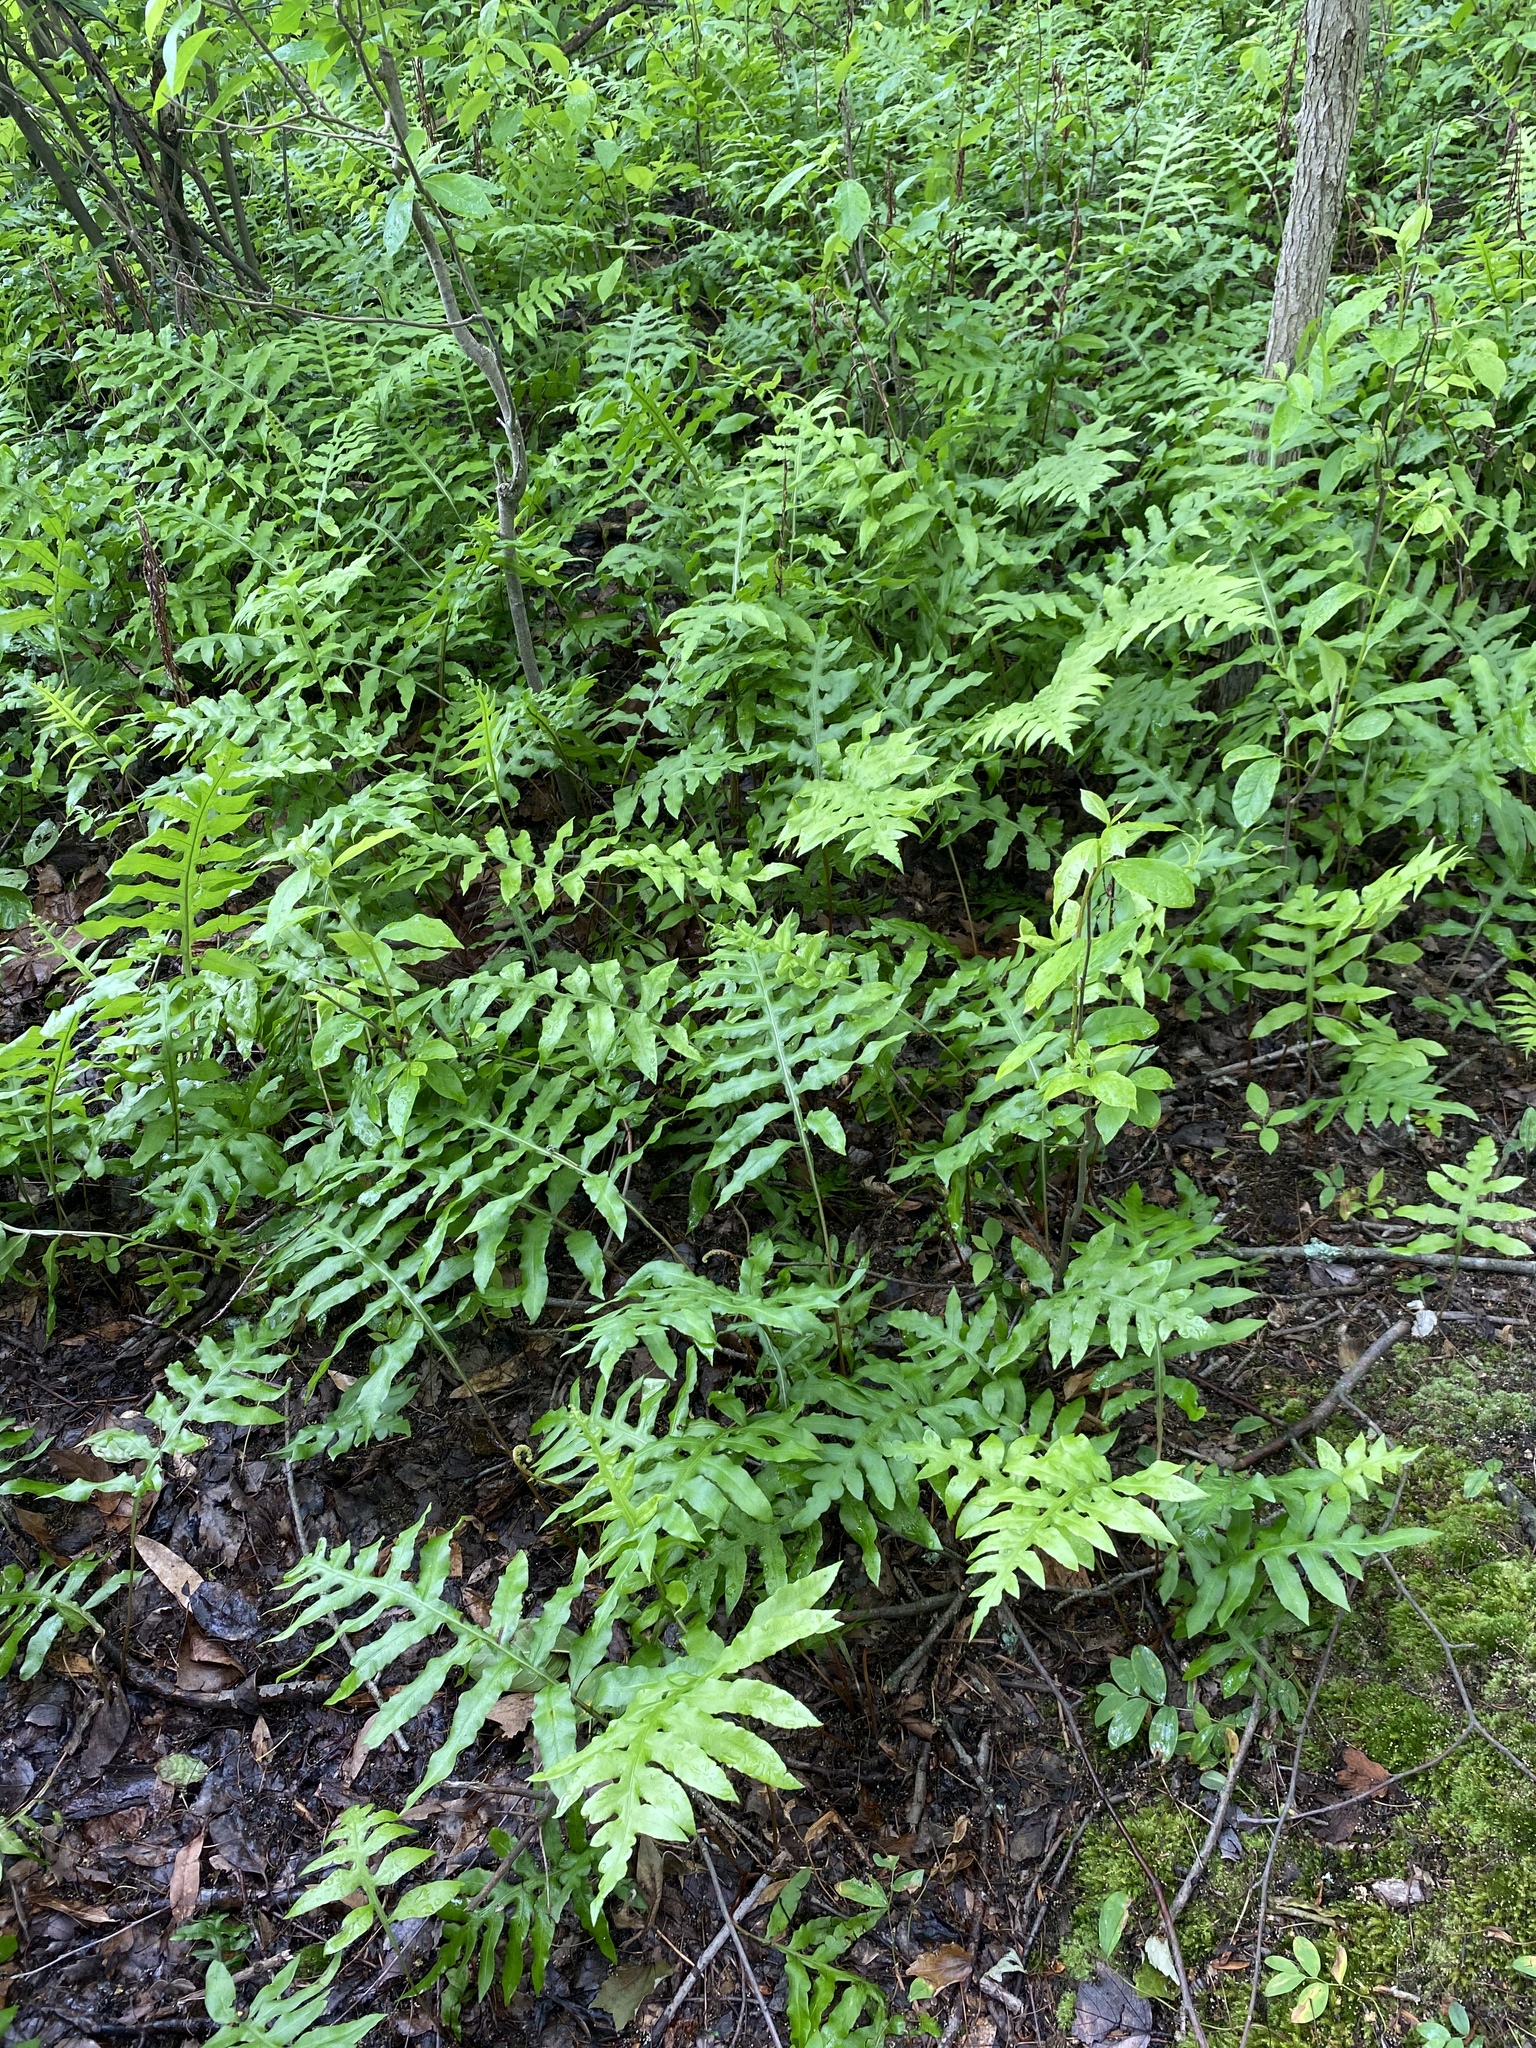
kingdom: Plantae
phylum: Tracheophyta
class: Polypodiopsida
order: Polypodiales
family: Blechnaceae
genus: Lorinseria
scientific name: Lorinseria areolata
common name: Dwarf chain fern
